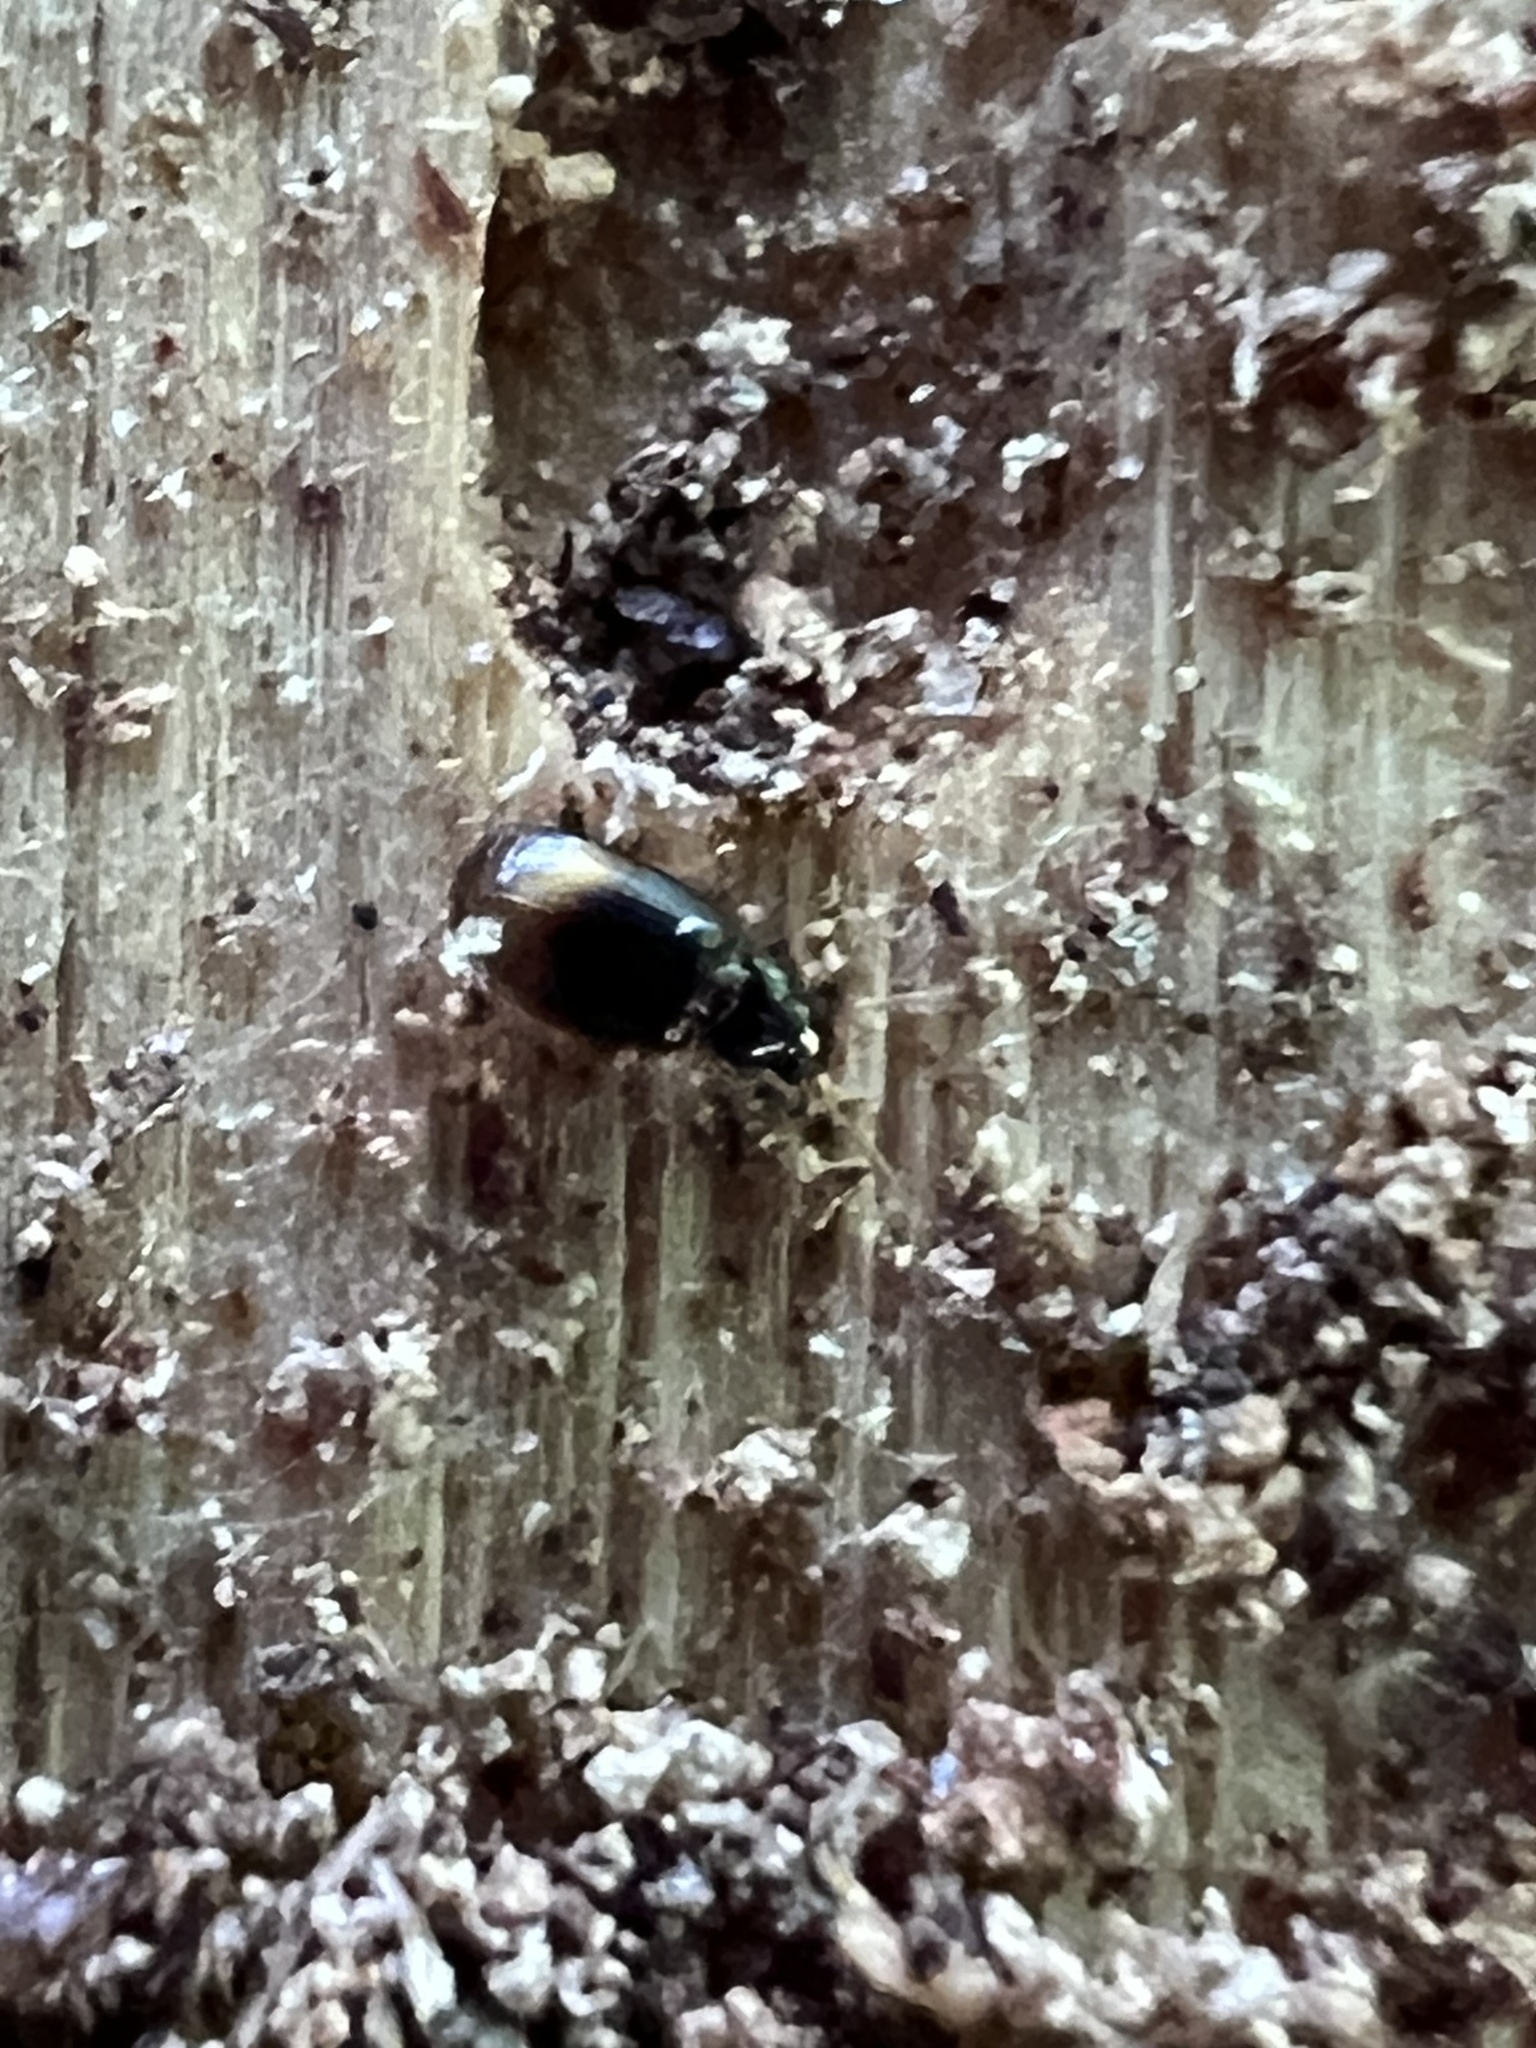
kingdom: Animalia
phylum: Arthropoda
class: Insecta
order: Coleoptera
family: Carabidae
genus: Mioptachys
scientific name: Mioptachys flavicauda
